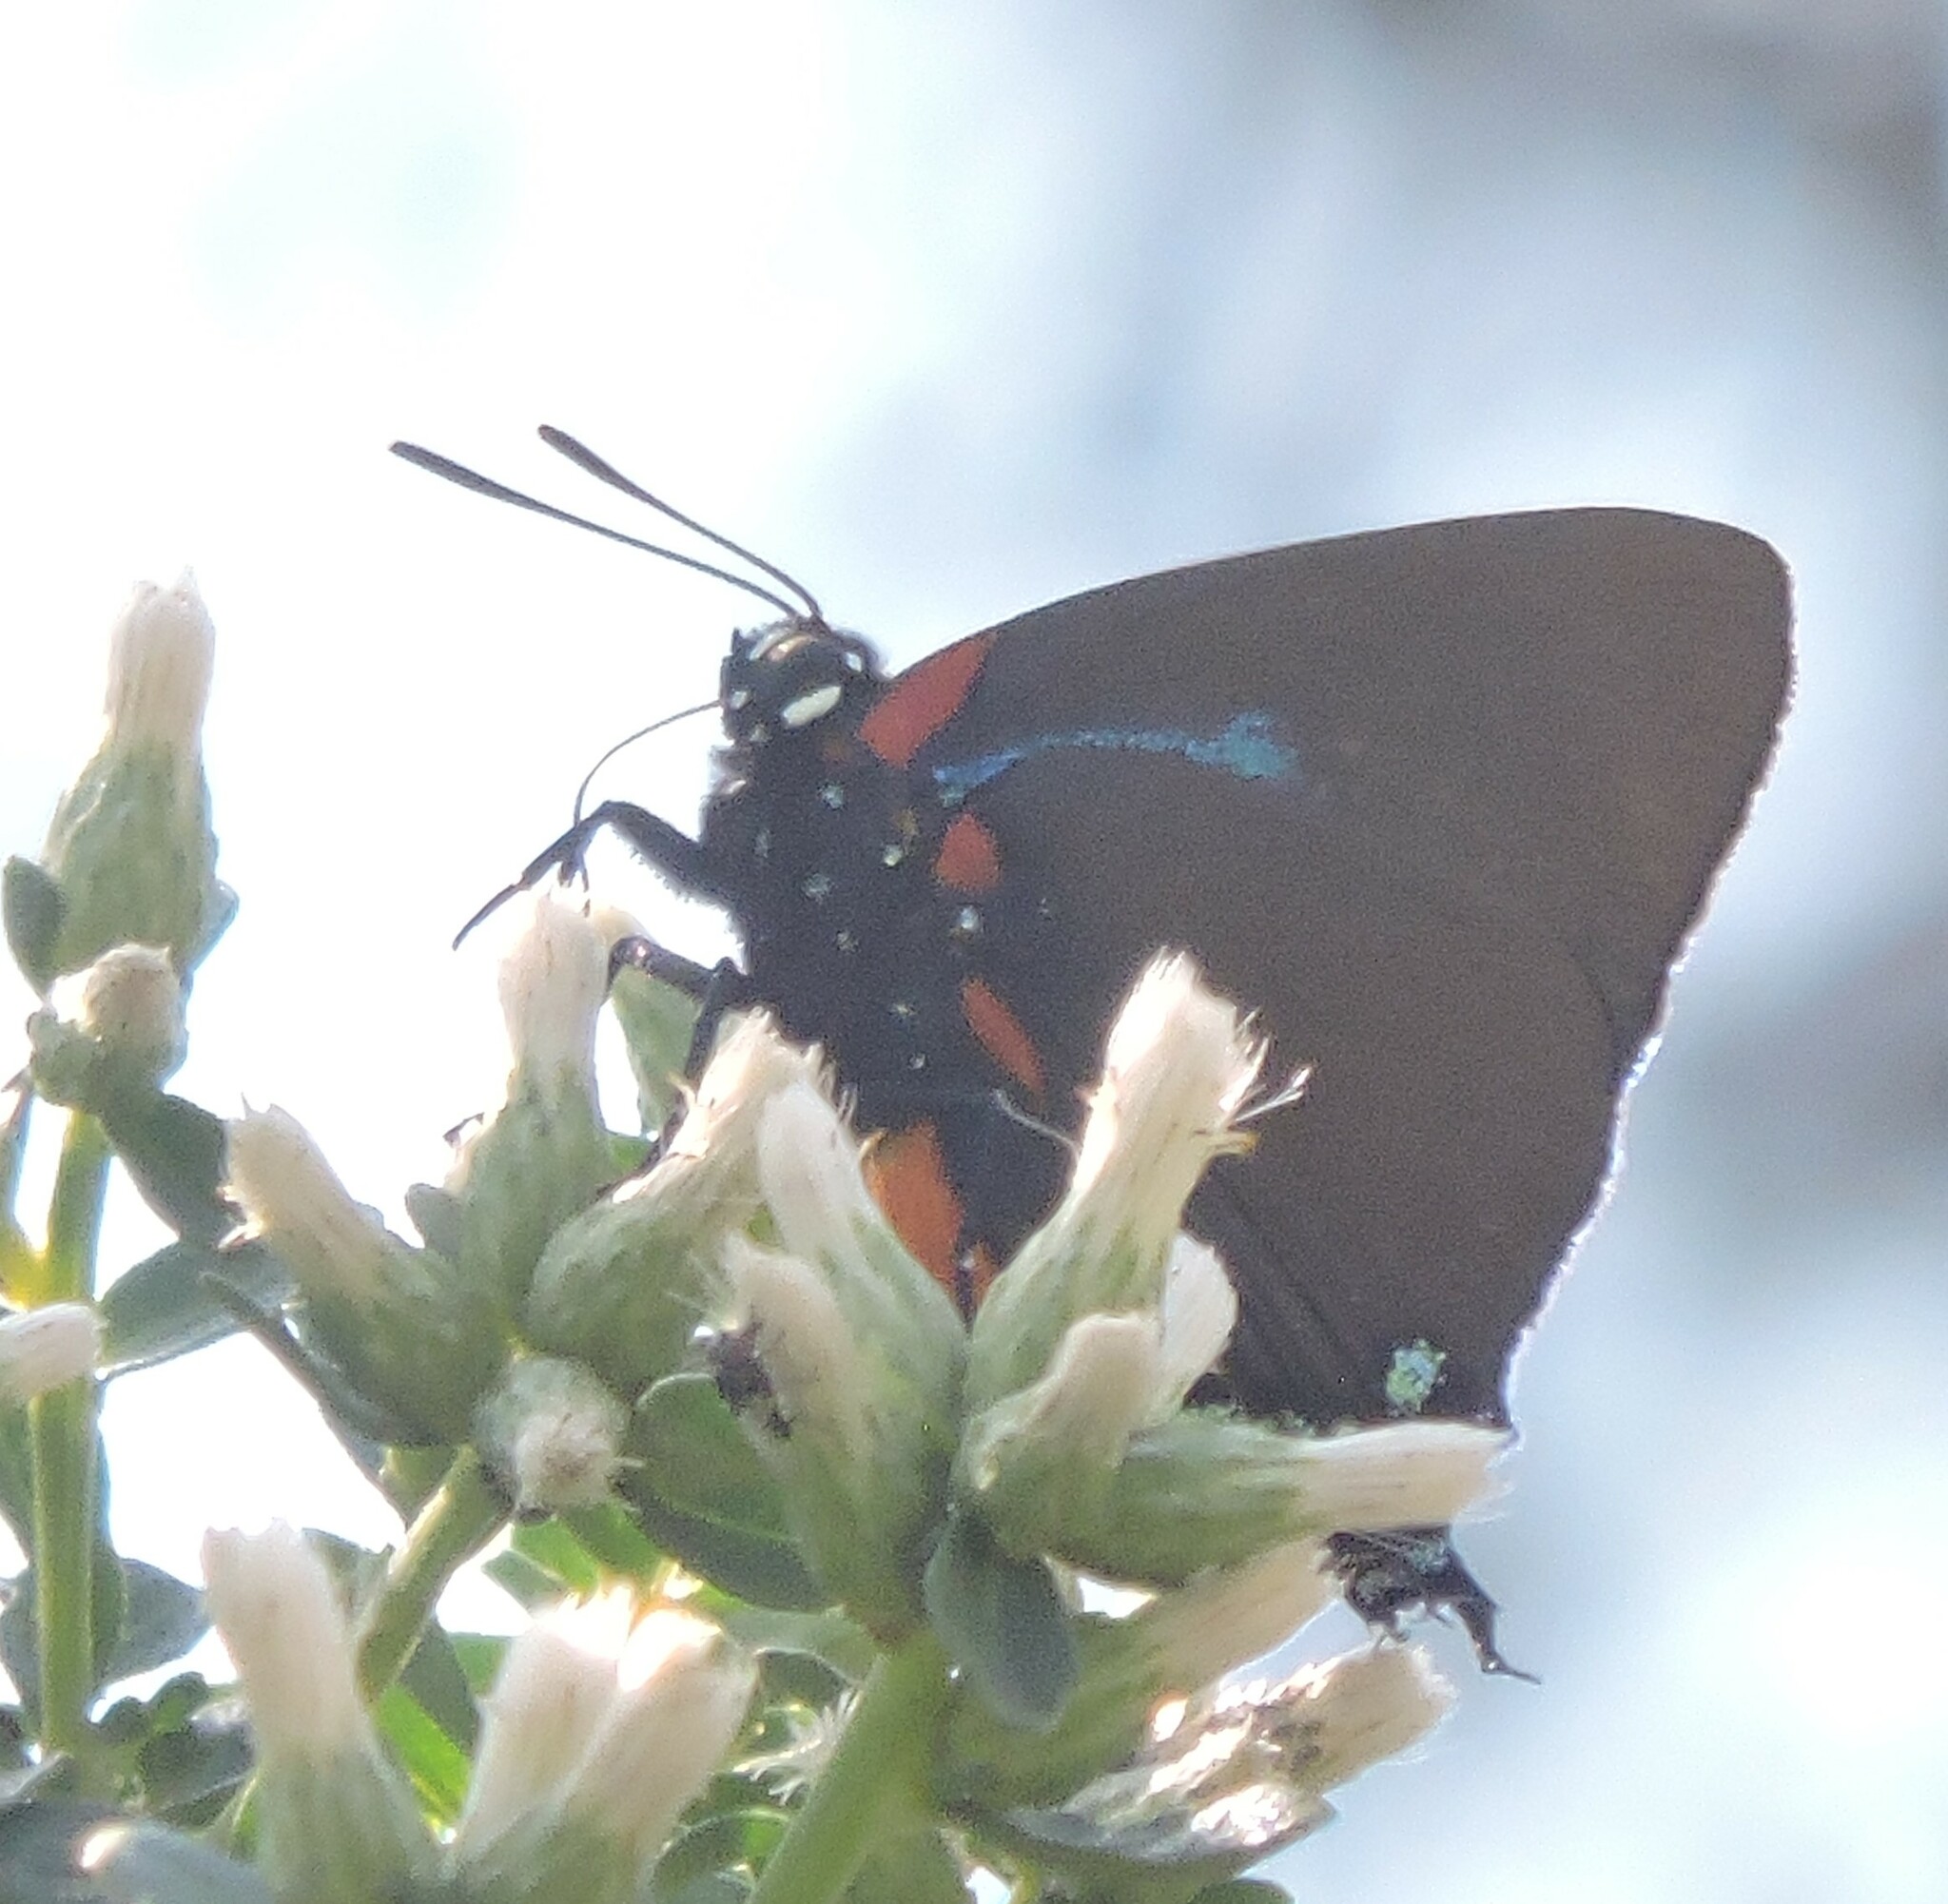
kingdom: Animalia
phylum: Arthropoda
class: Insecta
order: Lepidoptera
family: Lycaenidae
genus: Atlides
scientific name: Atlides halesus
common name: Great purple hairstreak
